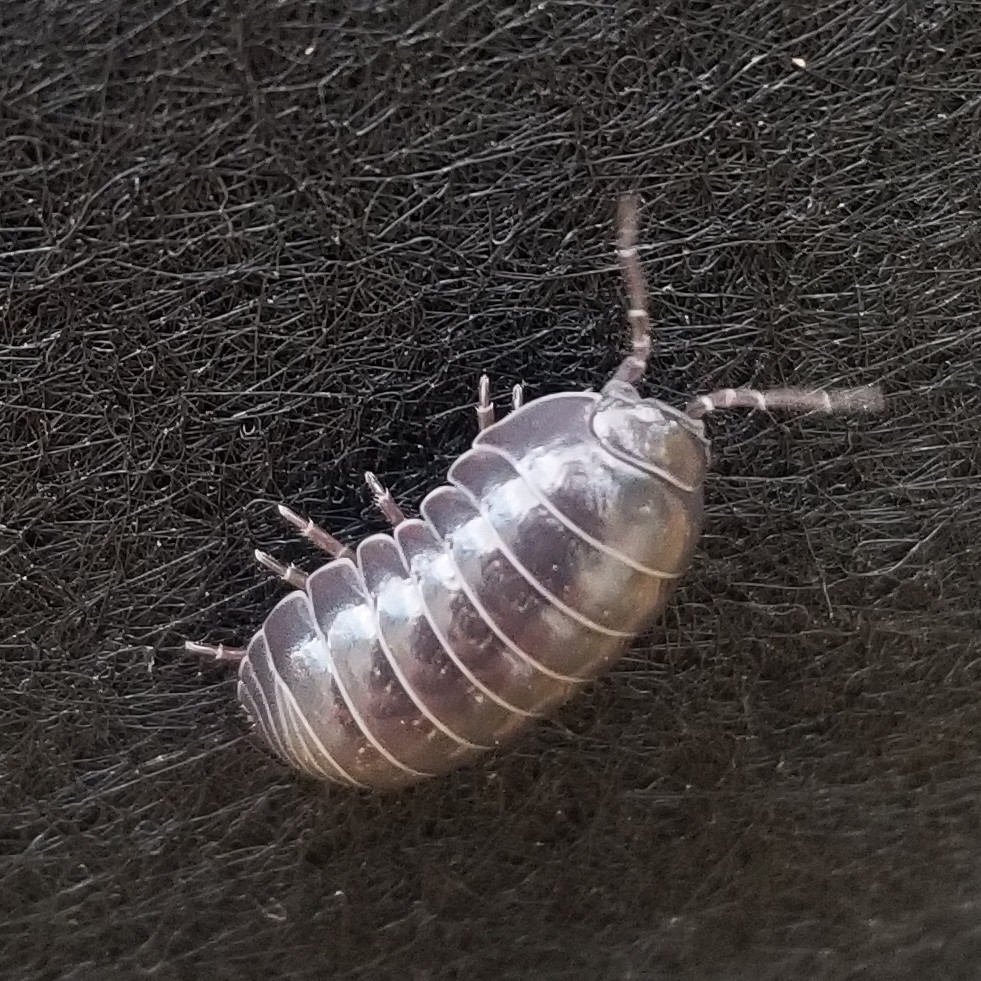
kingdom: Animalia
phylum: Arthropoda
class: Malacostraca
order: Isopoda
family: Armadillidiidae
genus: Armadillidium
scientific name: Armadillidium vulgare
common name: Common pill woodlouse
